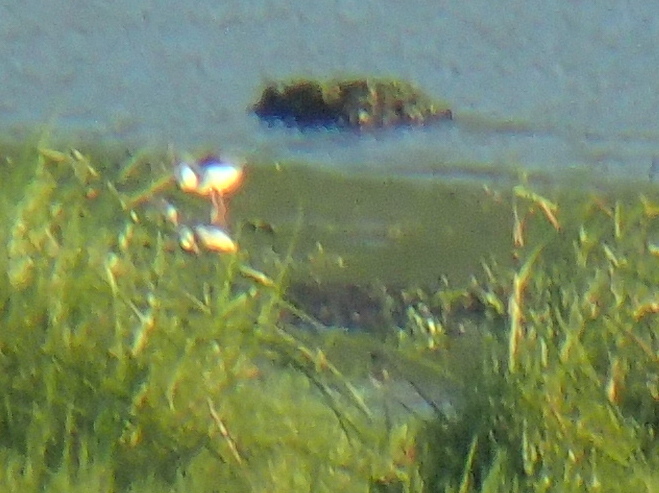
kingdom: Animalia
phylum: Chordata
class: Aves
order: Charadriiformes
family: Recurvirostridae
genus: Himantopus
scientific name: Himantopus leucocephalus
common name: White-headed stilt
